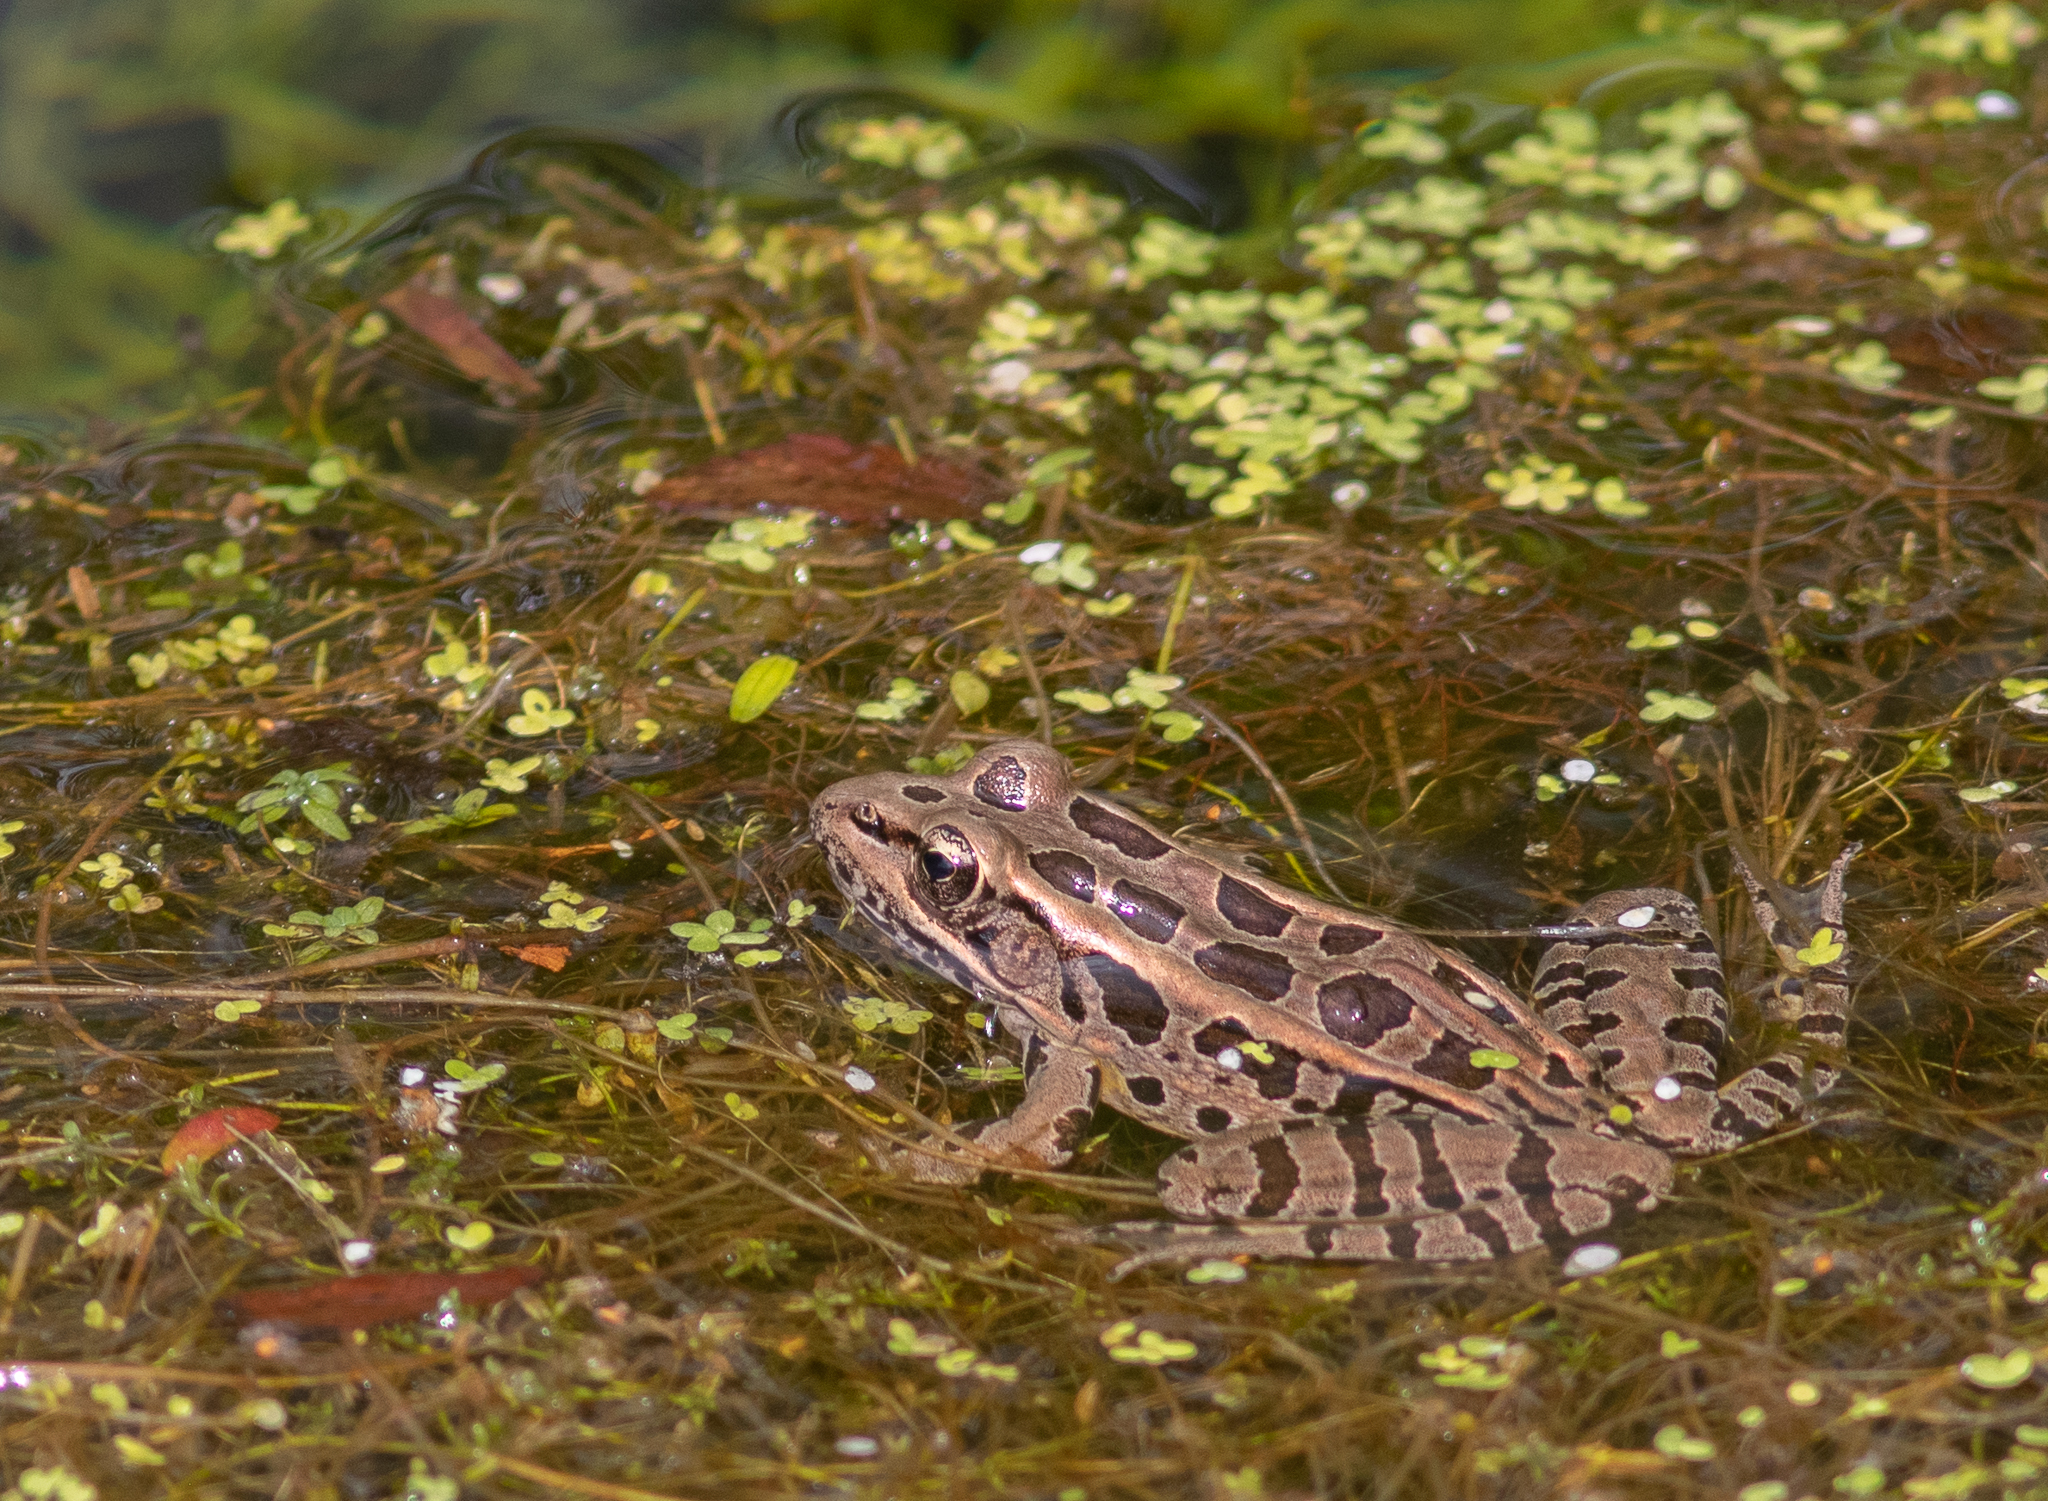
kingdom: Animalia
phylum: Chordata
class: Amphibia
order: Anura
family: Ranidae
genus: Lithobates
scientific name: Lithobates palustris
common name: Pickerel frog
